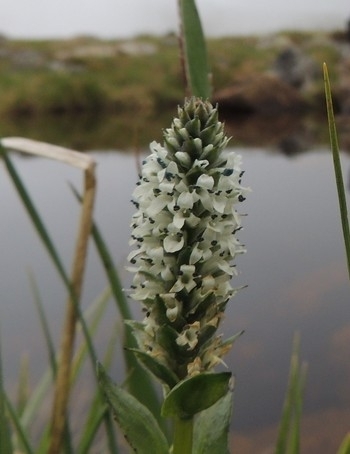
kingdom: Plantae
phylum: Tracheophyta
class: Magnoliopsida
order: Lamiales
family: Plantaginaceae
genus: Lagotis
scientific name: Lagotis uralensis
